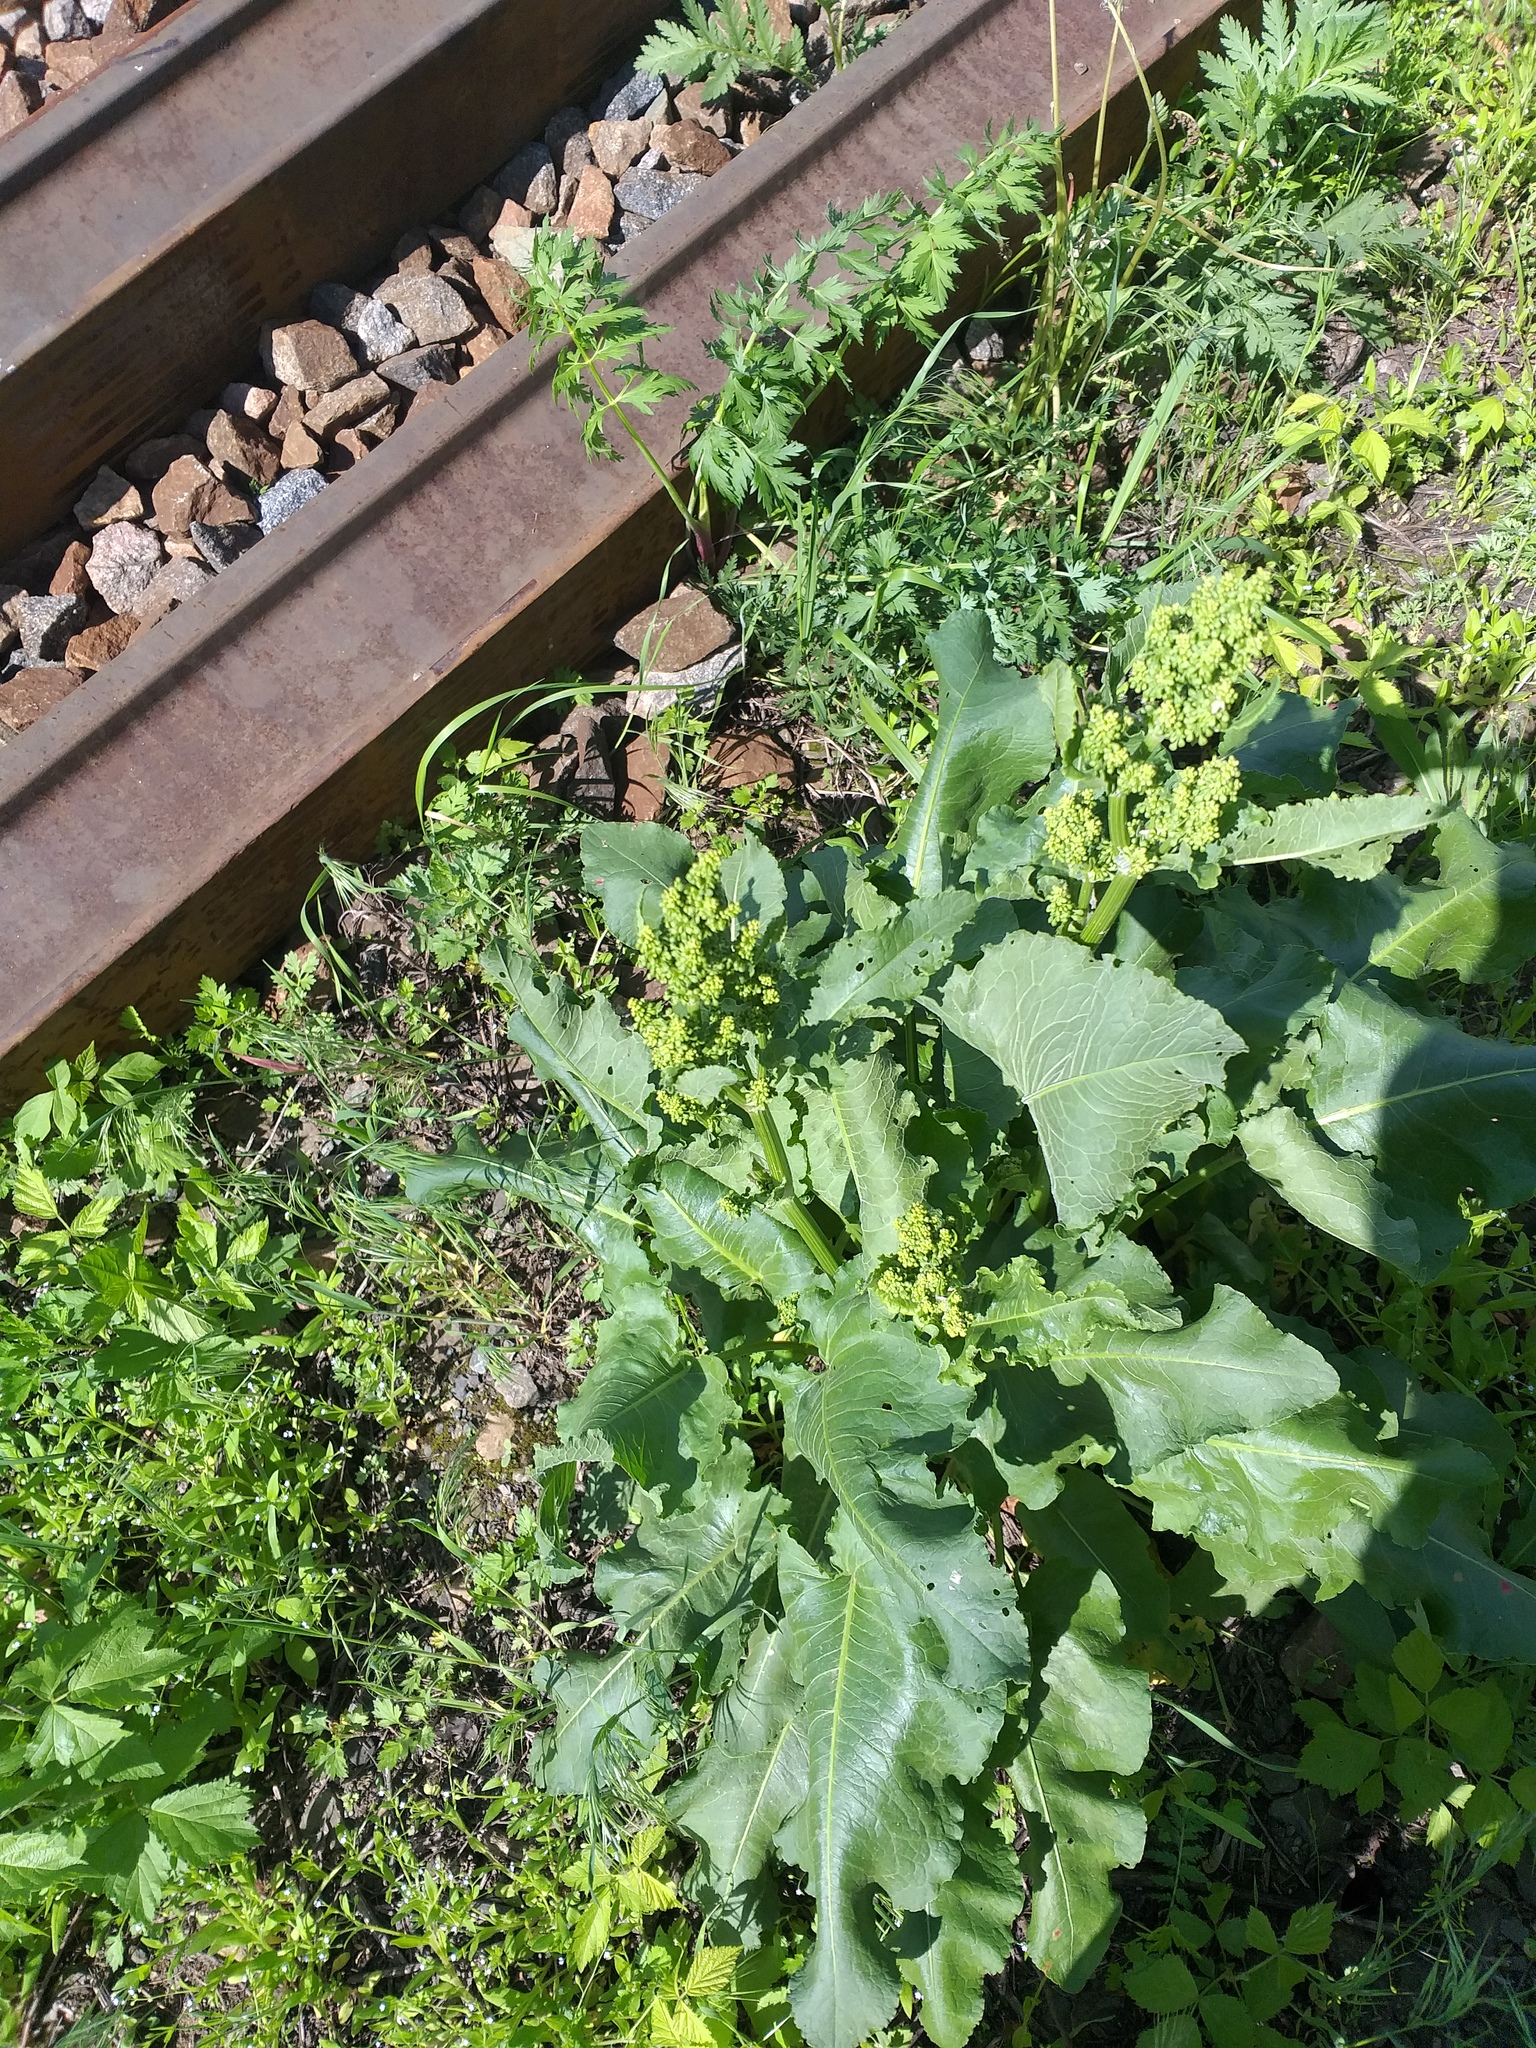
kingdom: Plantae
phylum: Tracheophyta
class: Magnoliopsida
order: Caryophyllales
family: Polygonaceae
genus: Rumex
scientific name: Rumex confertus
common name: Russian dock
